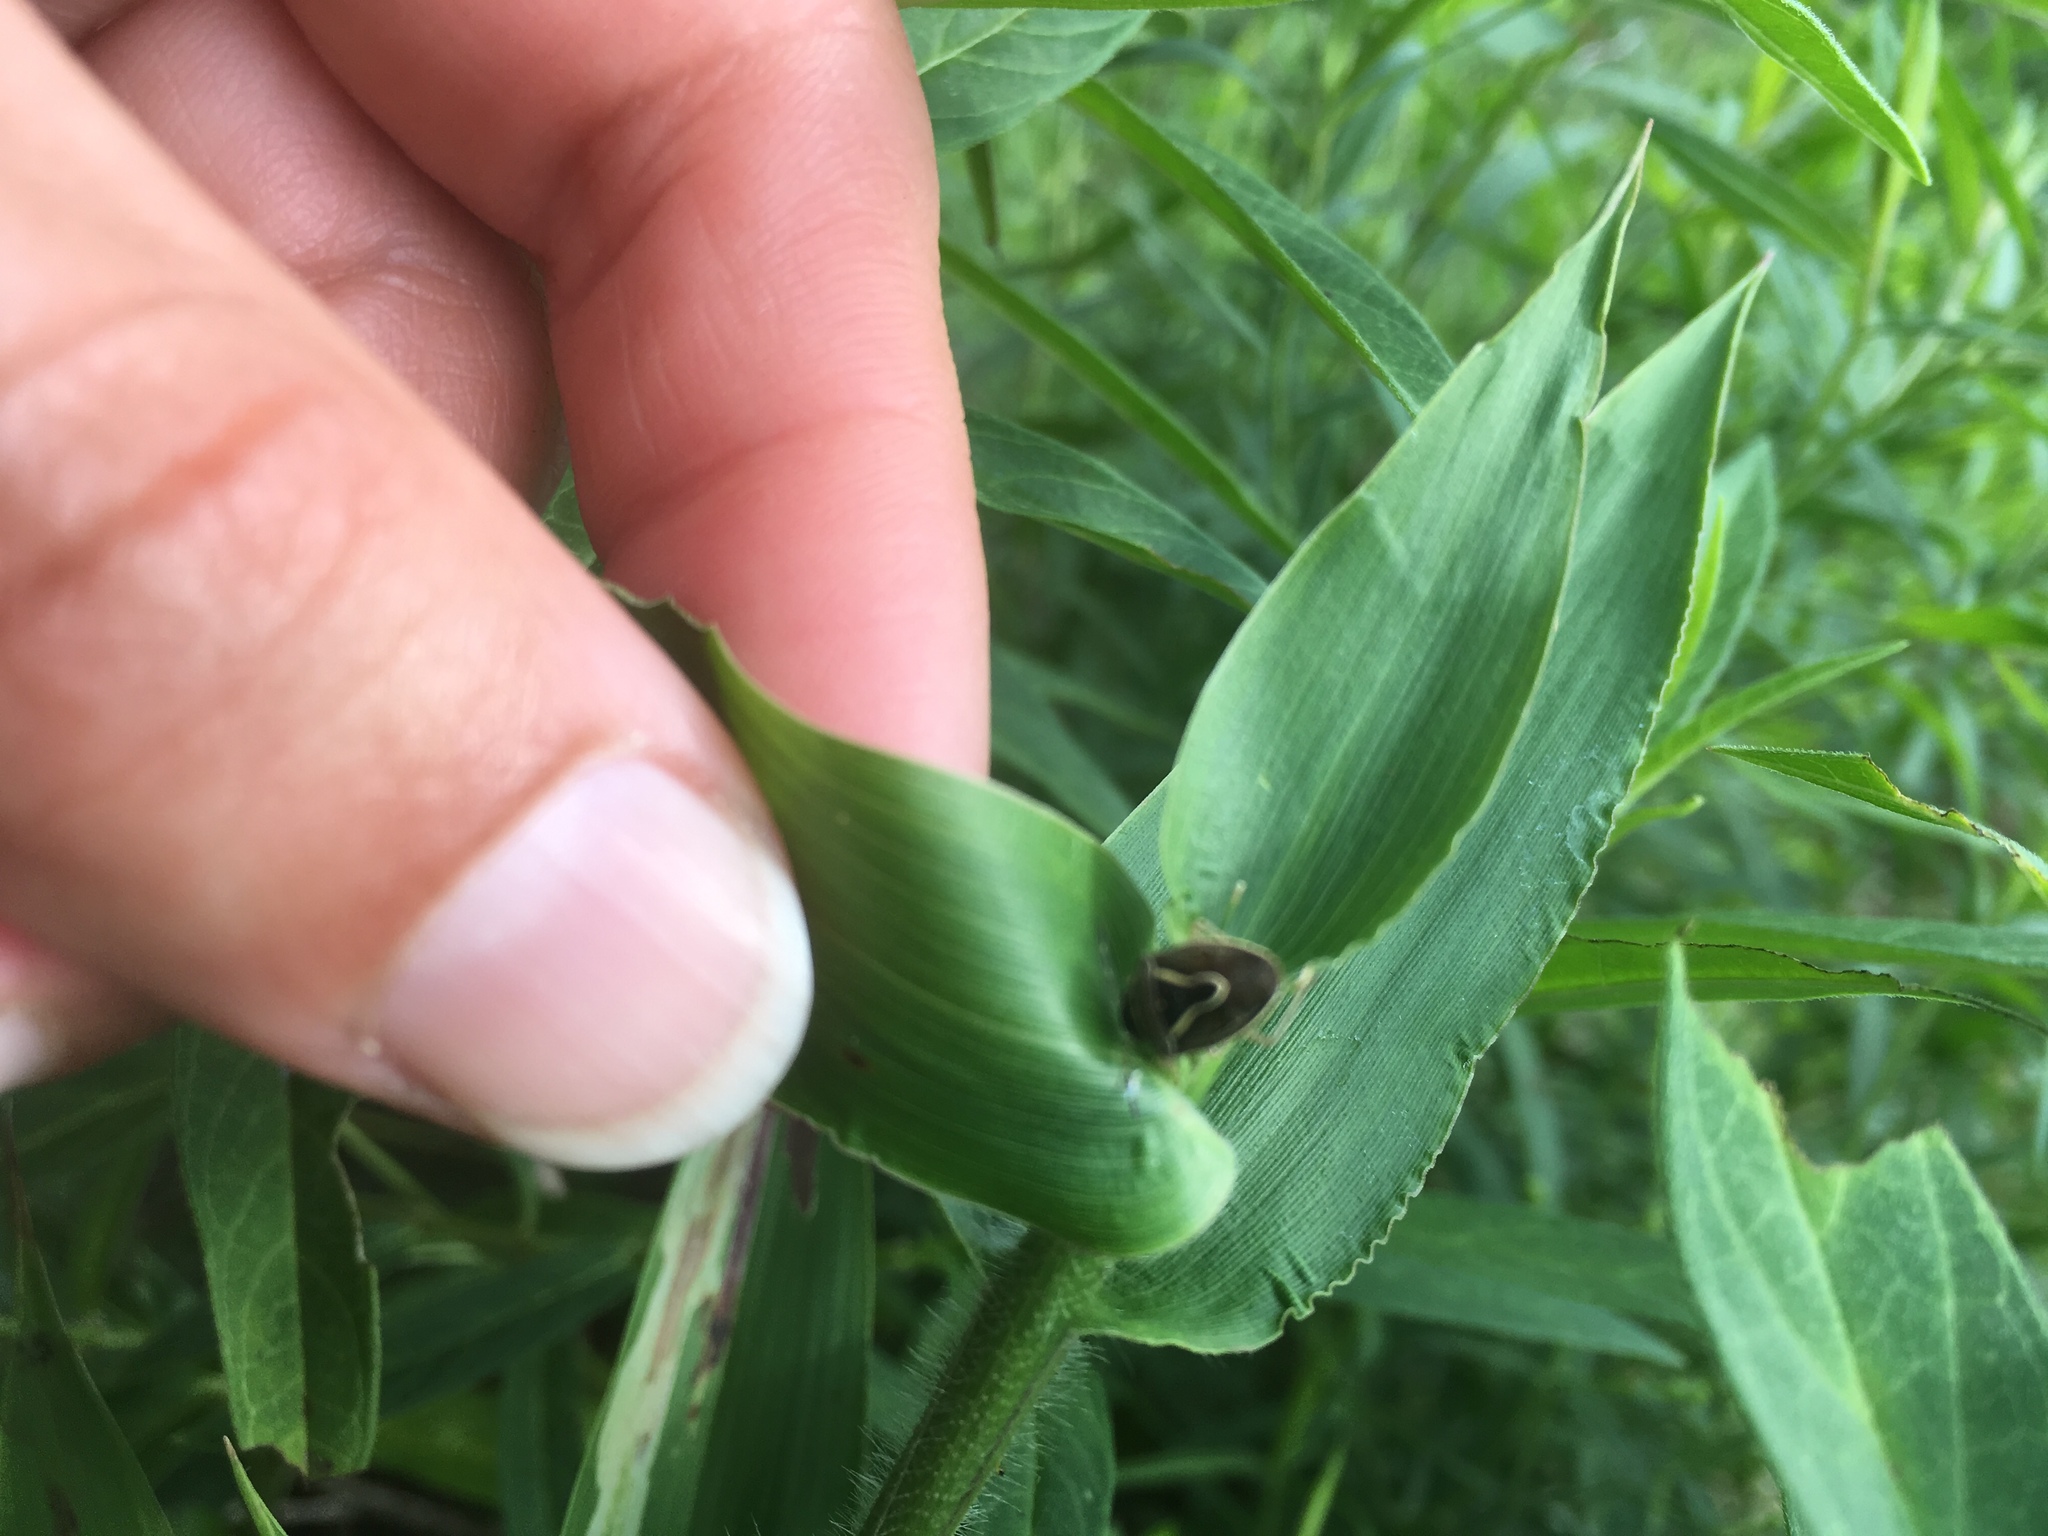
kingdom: Animalia
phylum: Arthropoda
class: Insecta
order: Hemiptera
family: Pentatomidae
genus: Mormidea
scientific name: Mormidea lugens
